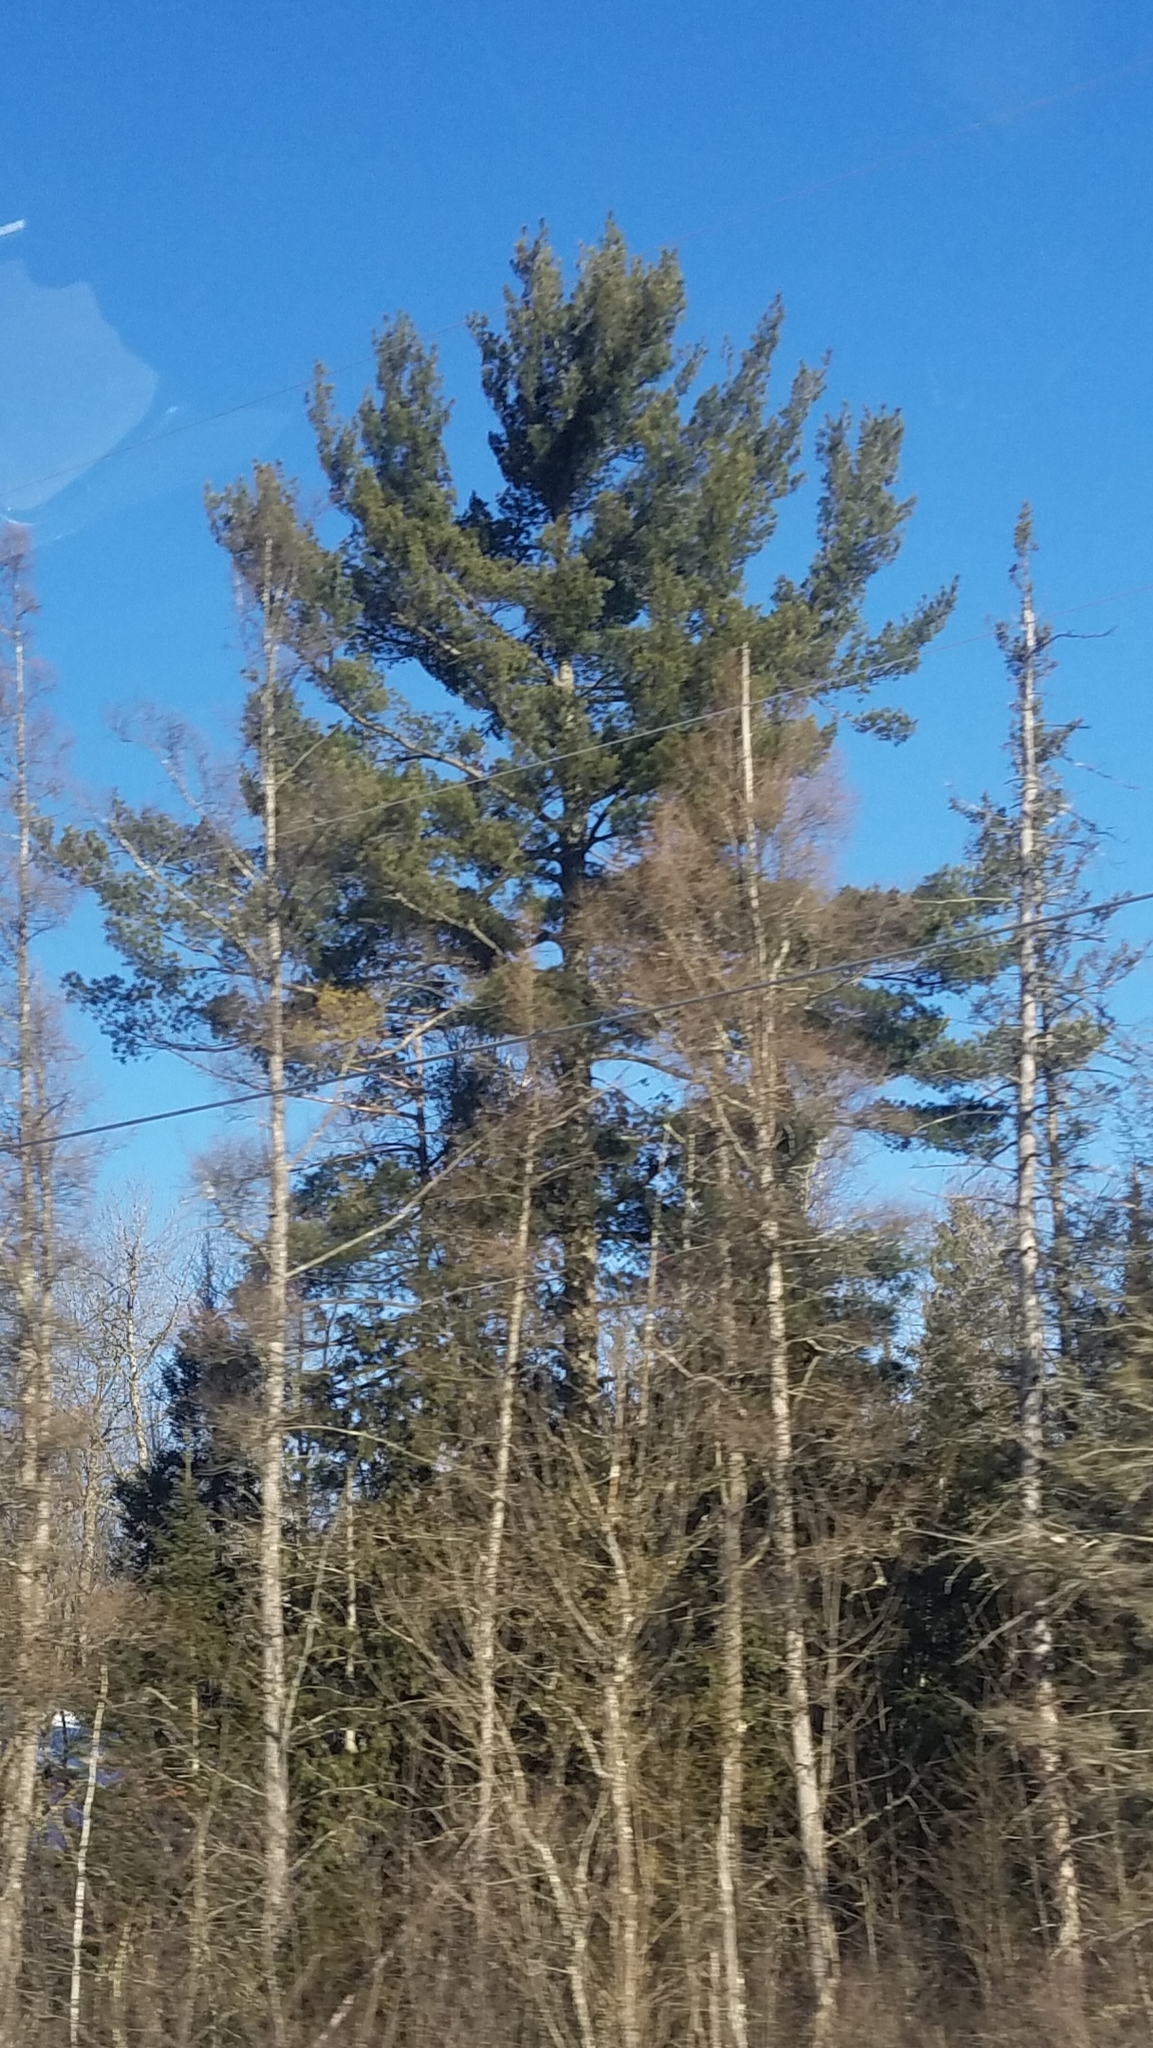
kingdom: Plantae
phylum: Tracheophyta
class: Pinopsida
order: Pinales
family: Pinaceae
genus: Pinus
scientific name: Pinus strobus
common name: Weymouth pine
